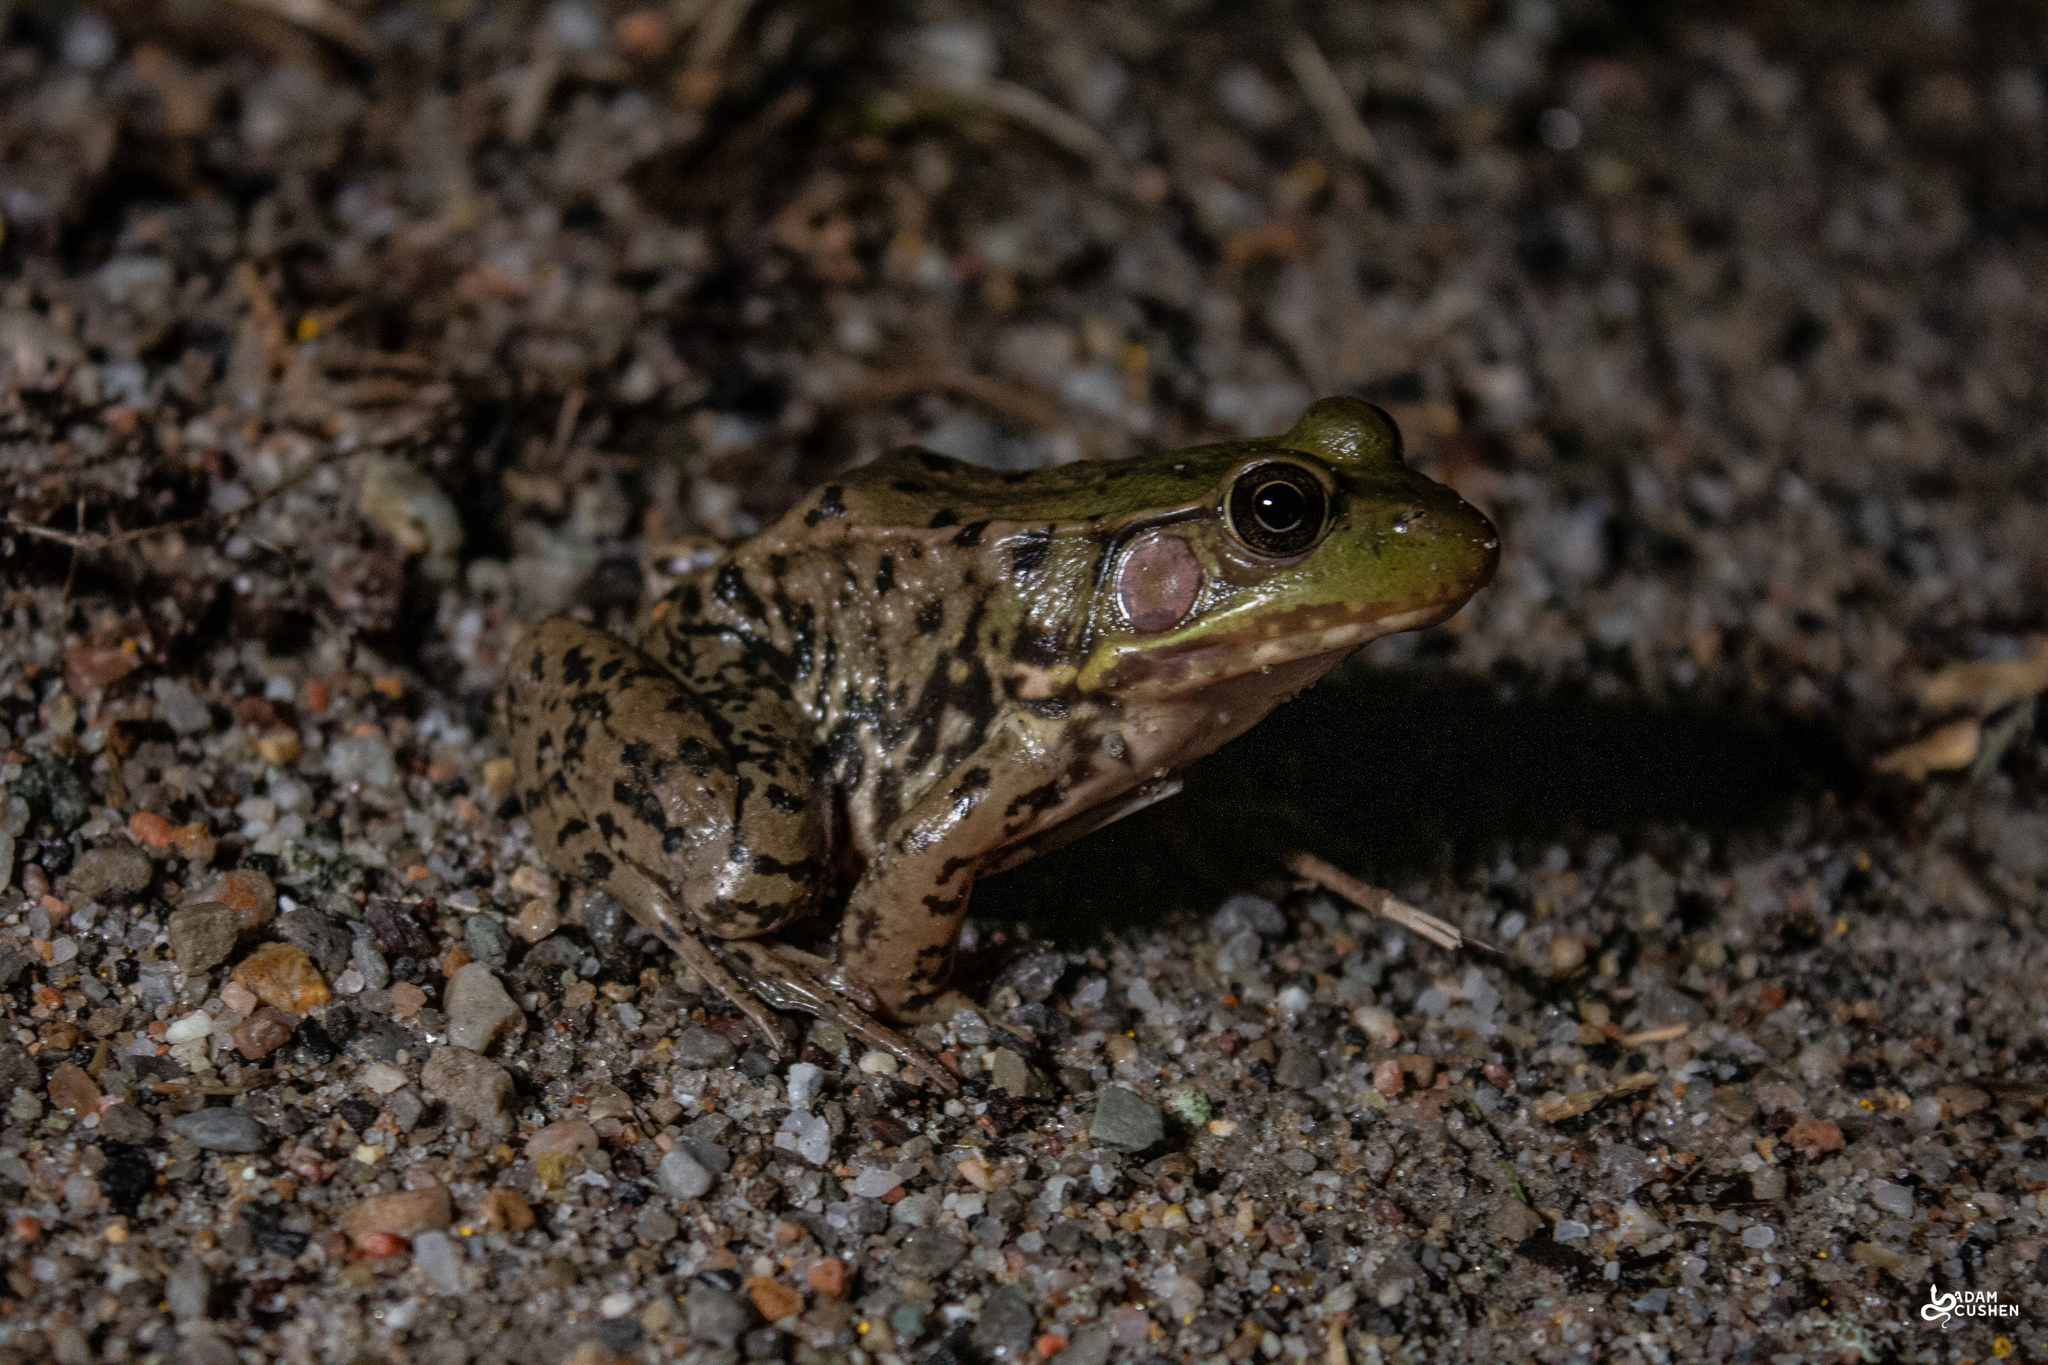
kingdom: Animalia
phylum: Chordata
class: Amphibia
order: Anura
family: Ranidae
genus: Lithobates
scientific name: Lithobates clamitans
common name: Green frog
